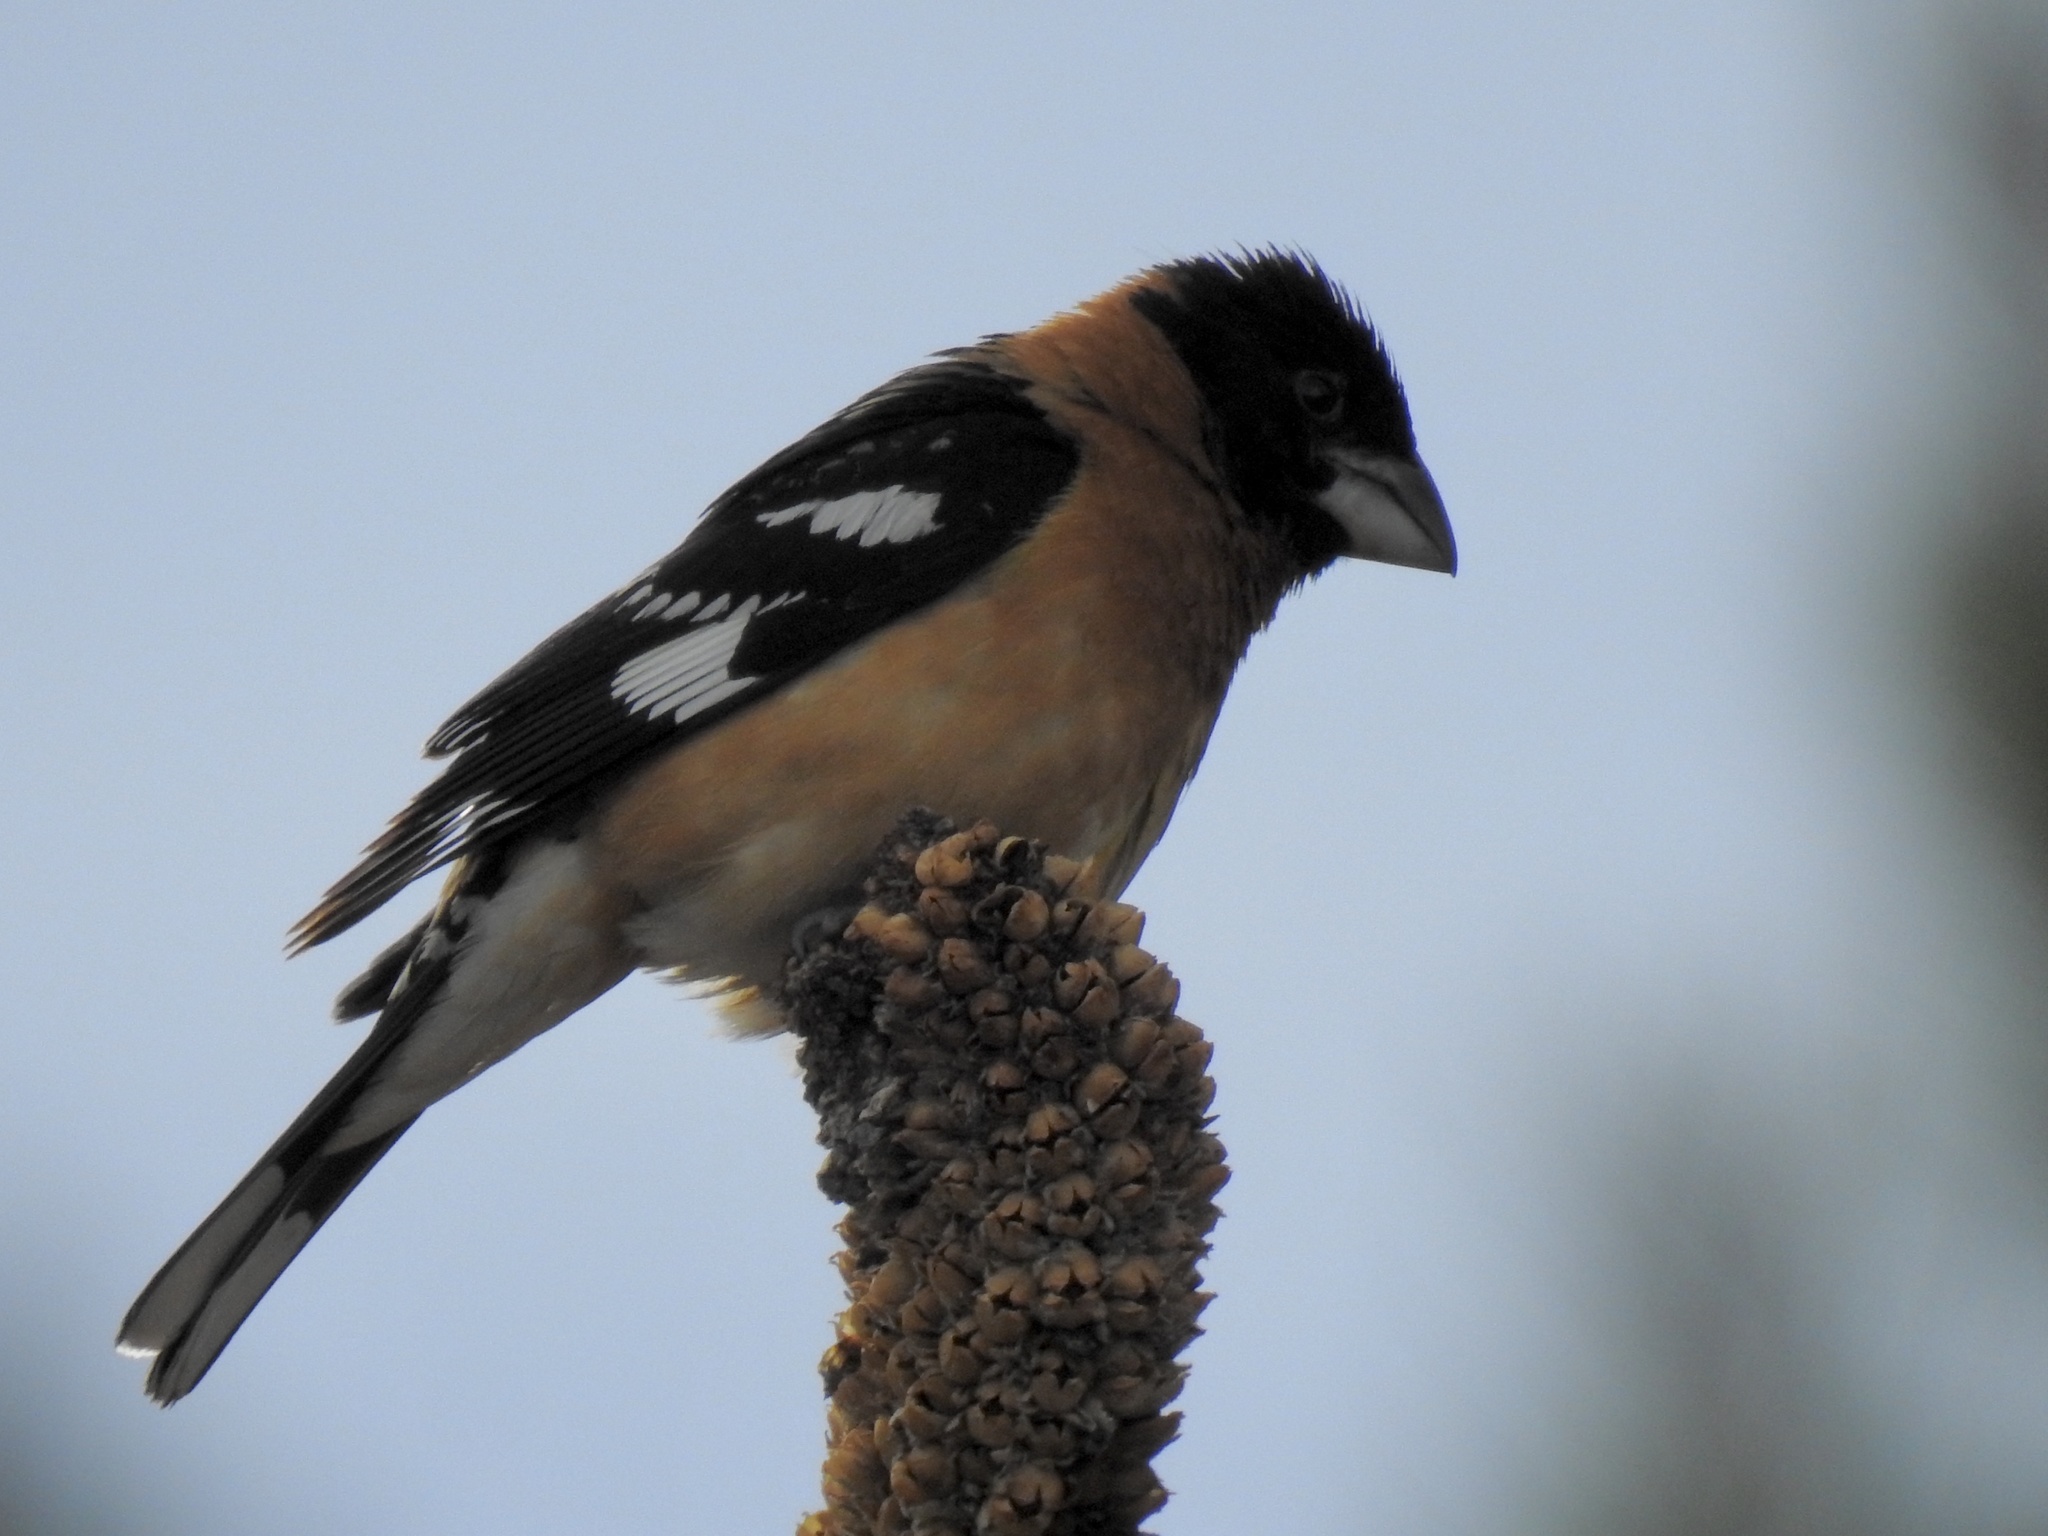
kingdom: Animalia
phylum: Chordata
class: Aves
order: Passeriformes
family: Cardinalidae
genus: Pheucticus
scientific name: Pheucticus melanocephalus
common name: Black-headed grosbeak
